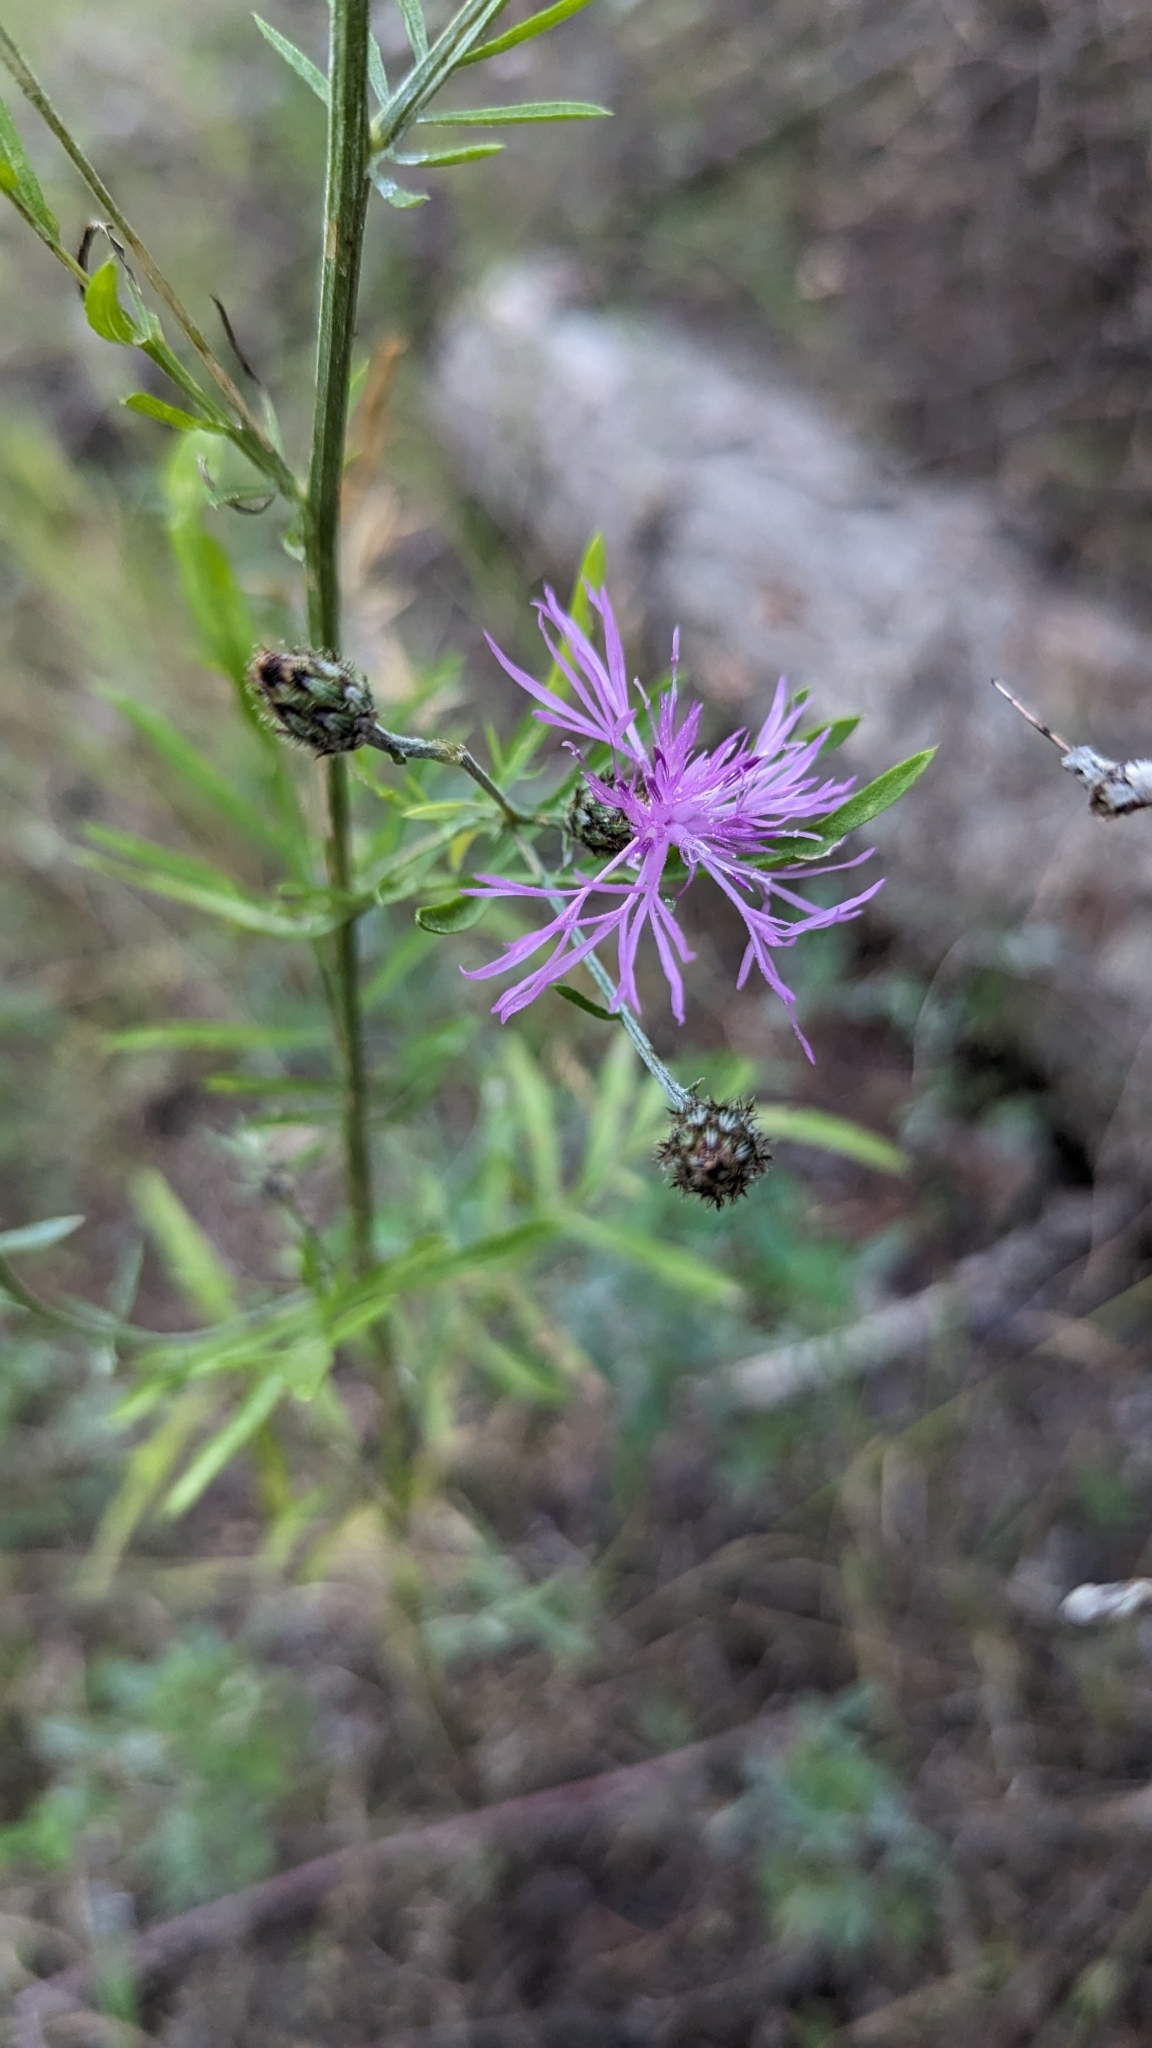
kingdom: Plantae
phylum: Tracheophyta
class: Magnoliopsida
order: Asterales
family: Asteraceae
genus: Centaurea
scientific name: Centaurea stoebe
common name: Spotted knapweed
